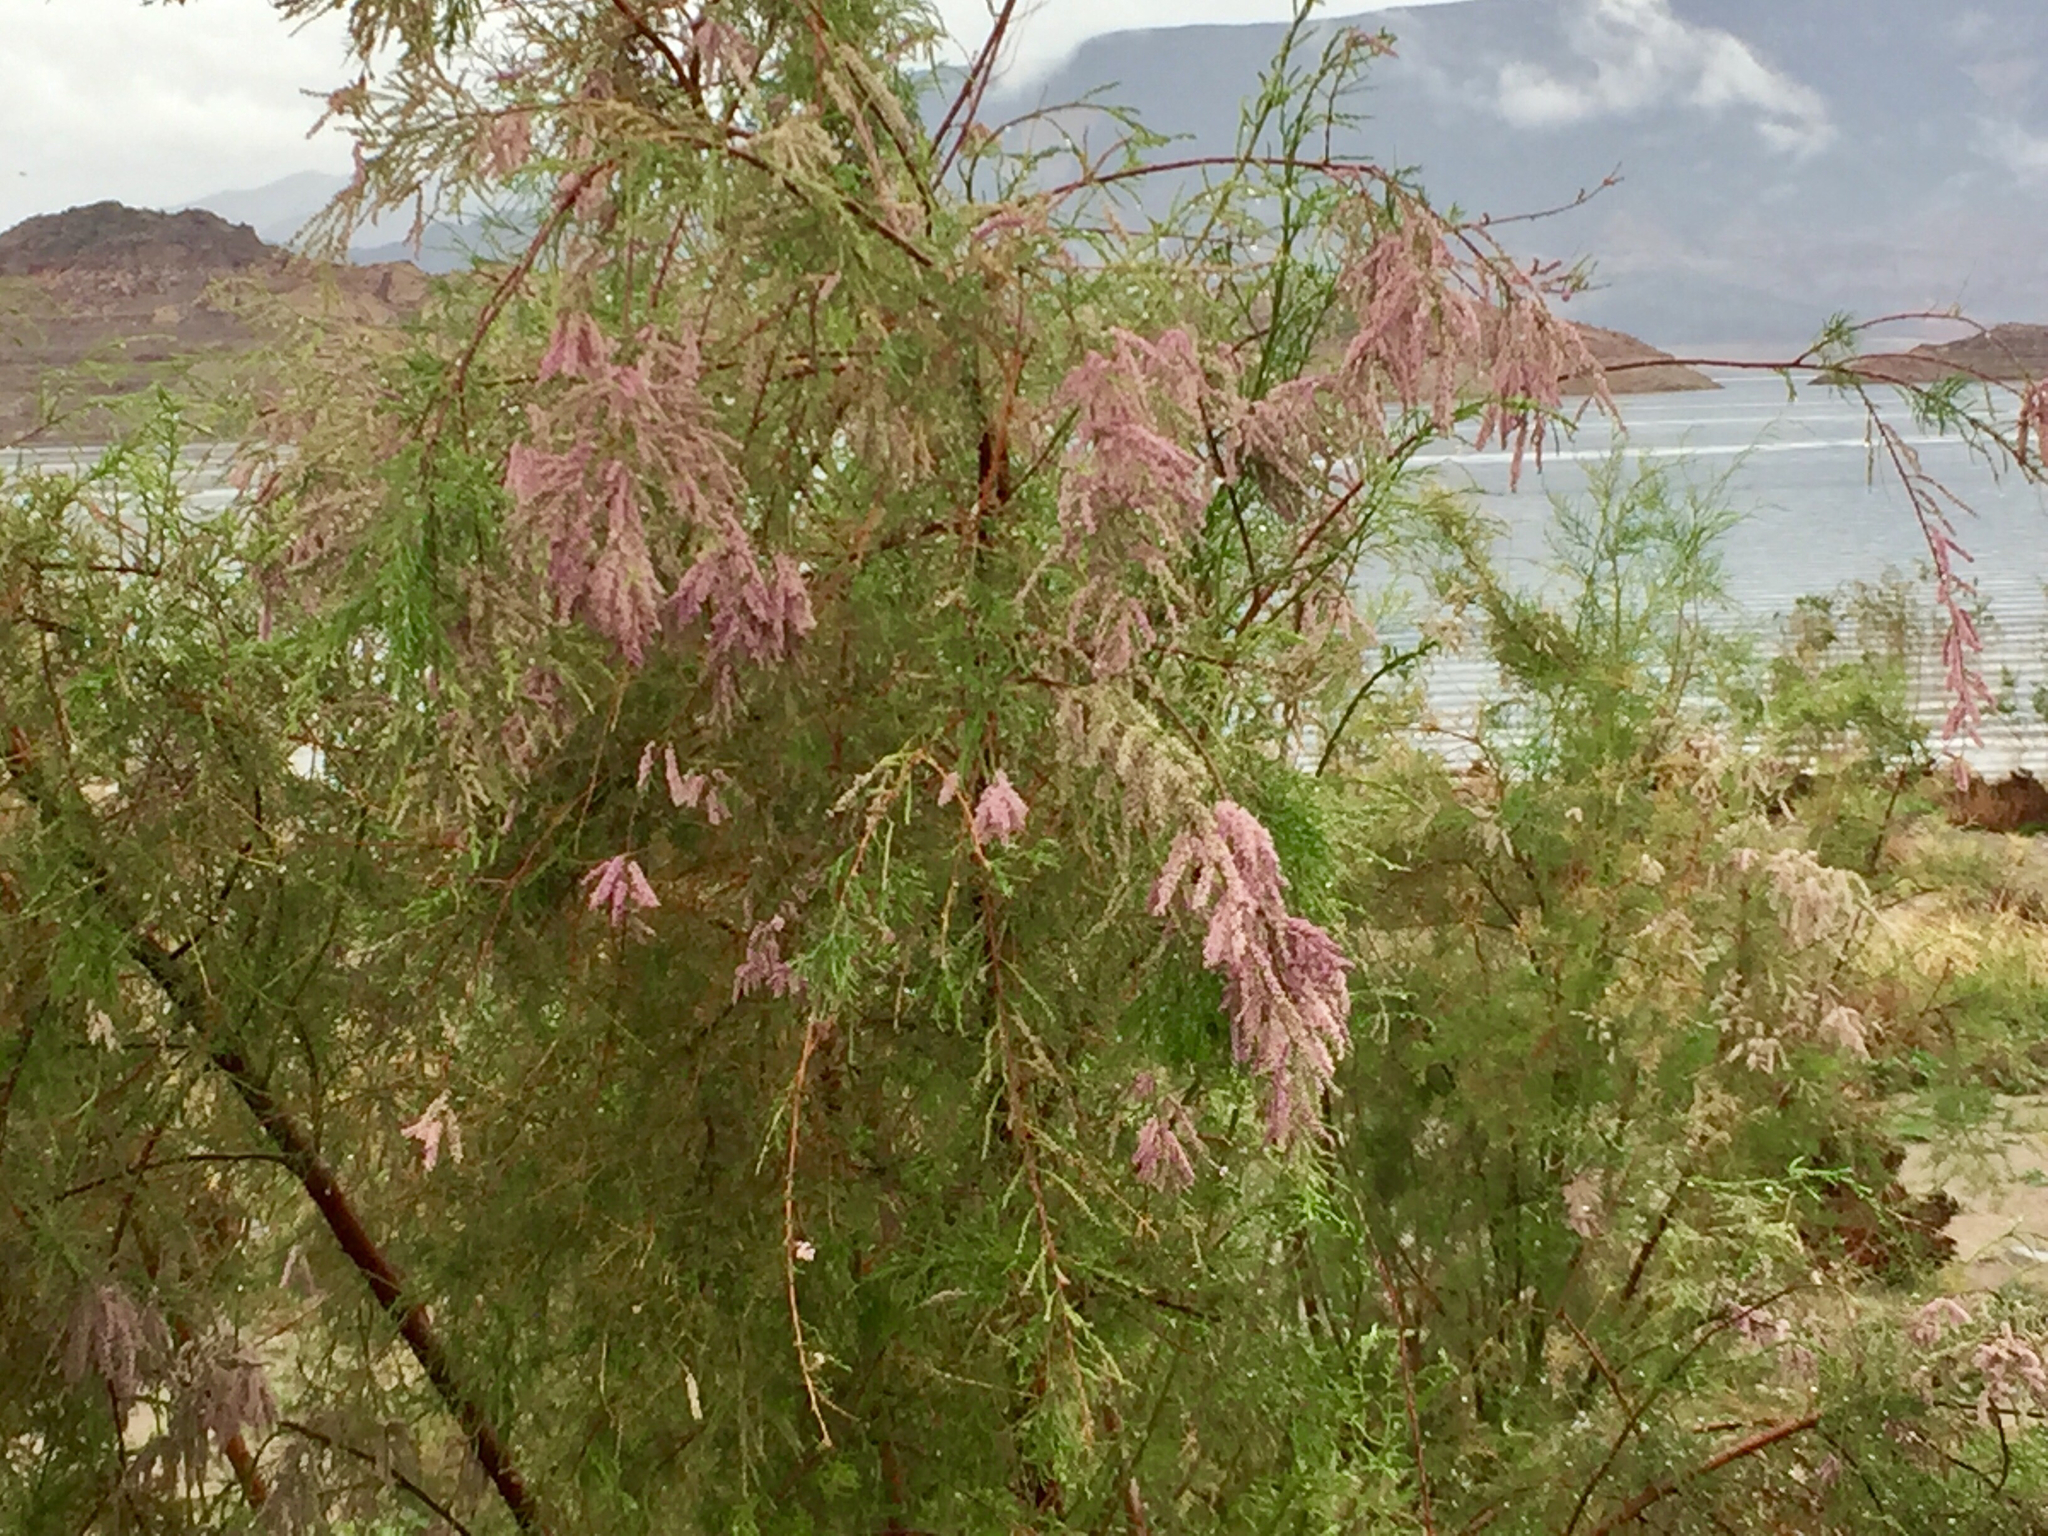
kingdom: Plantae
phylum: Tracheophyta
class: Magnoliopsida
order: Caryophyllales
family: Tamaricaceae
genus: Tamarix
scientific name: Tamarix ramosissima
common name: Pink tamarisk
